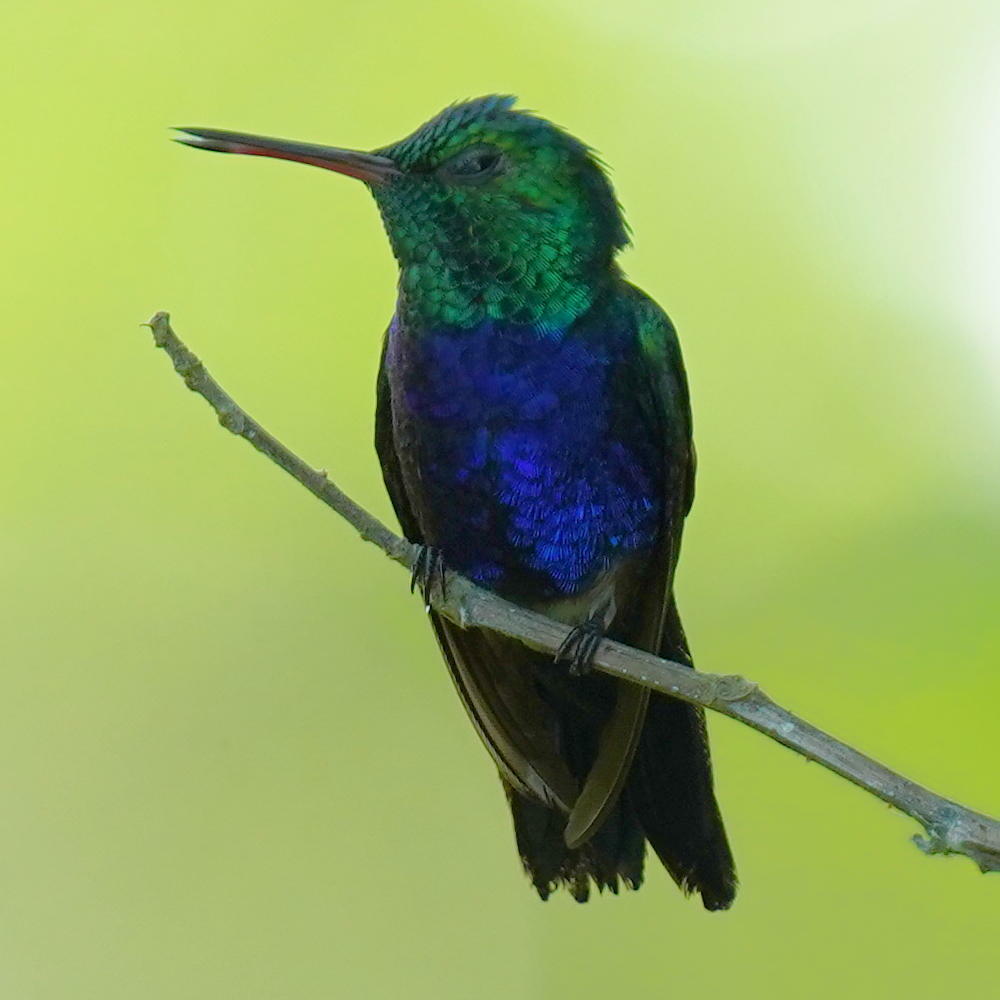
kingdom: Animalia
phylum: Chordata
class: Aves
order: Apodiformes
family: Trochilidae
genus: Chlorestes
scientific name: Chlorestes julie
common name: Violet-bellied hummingbird
